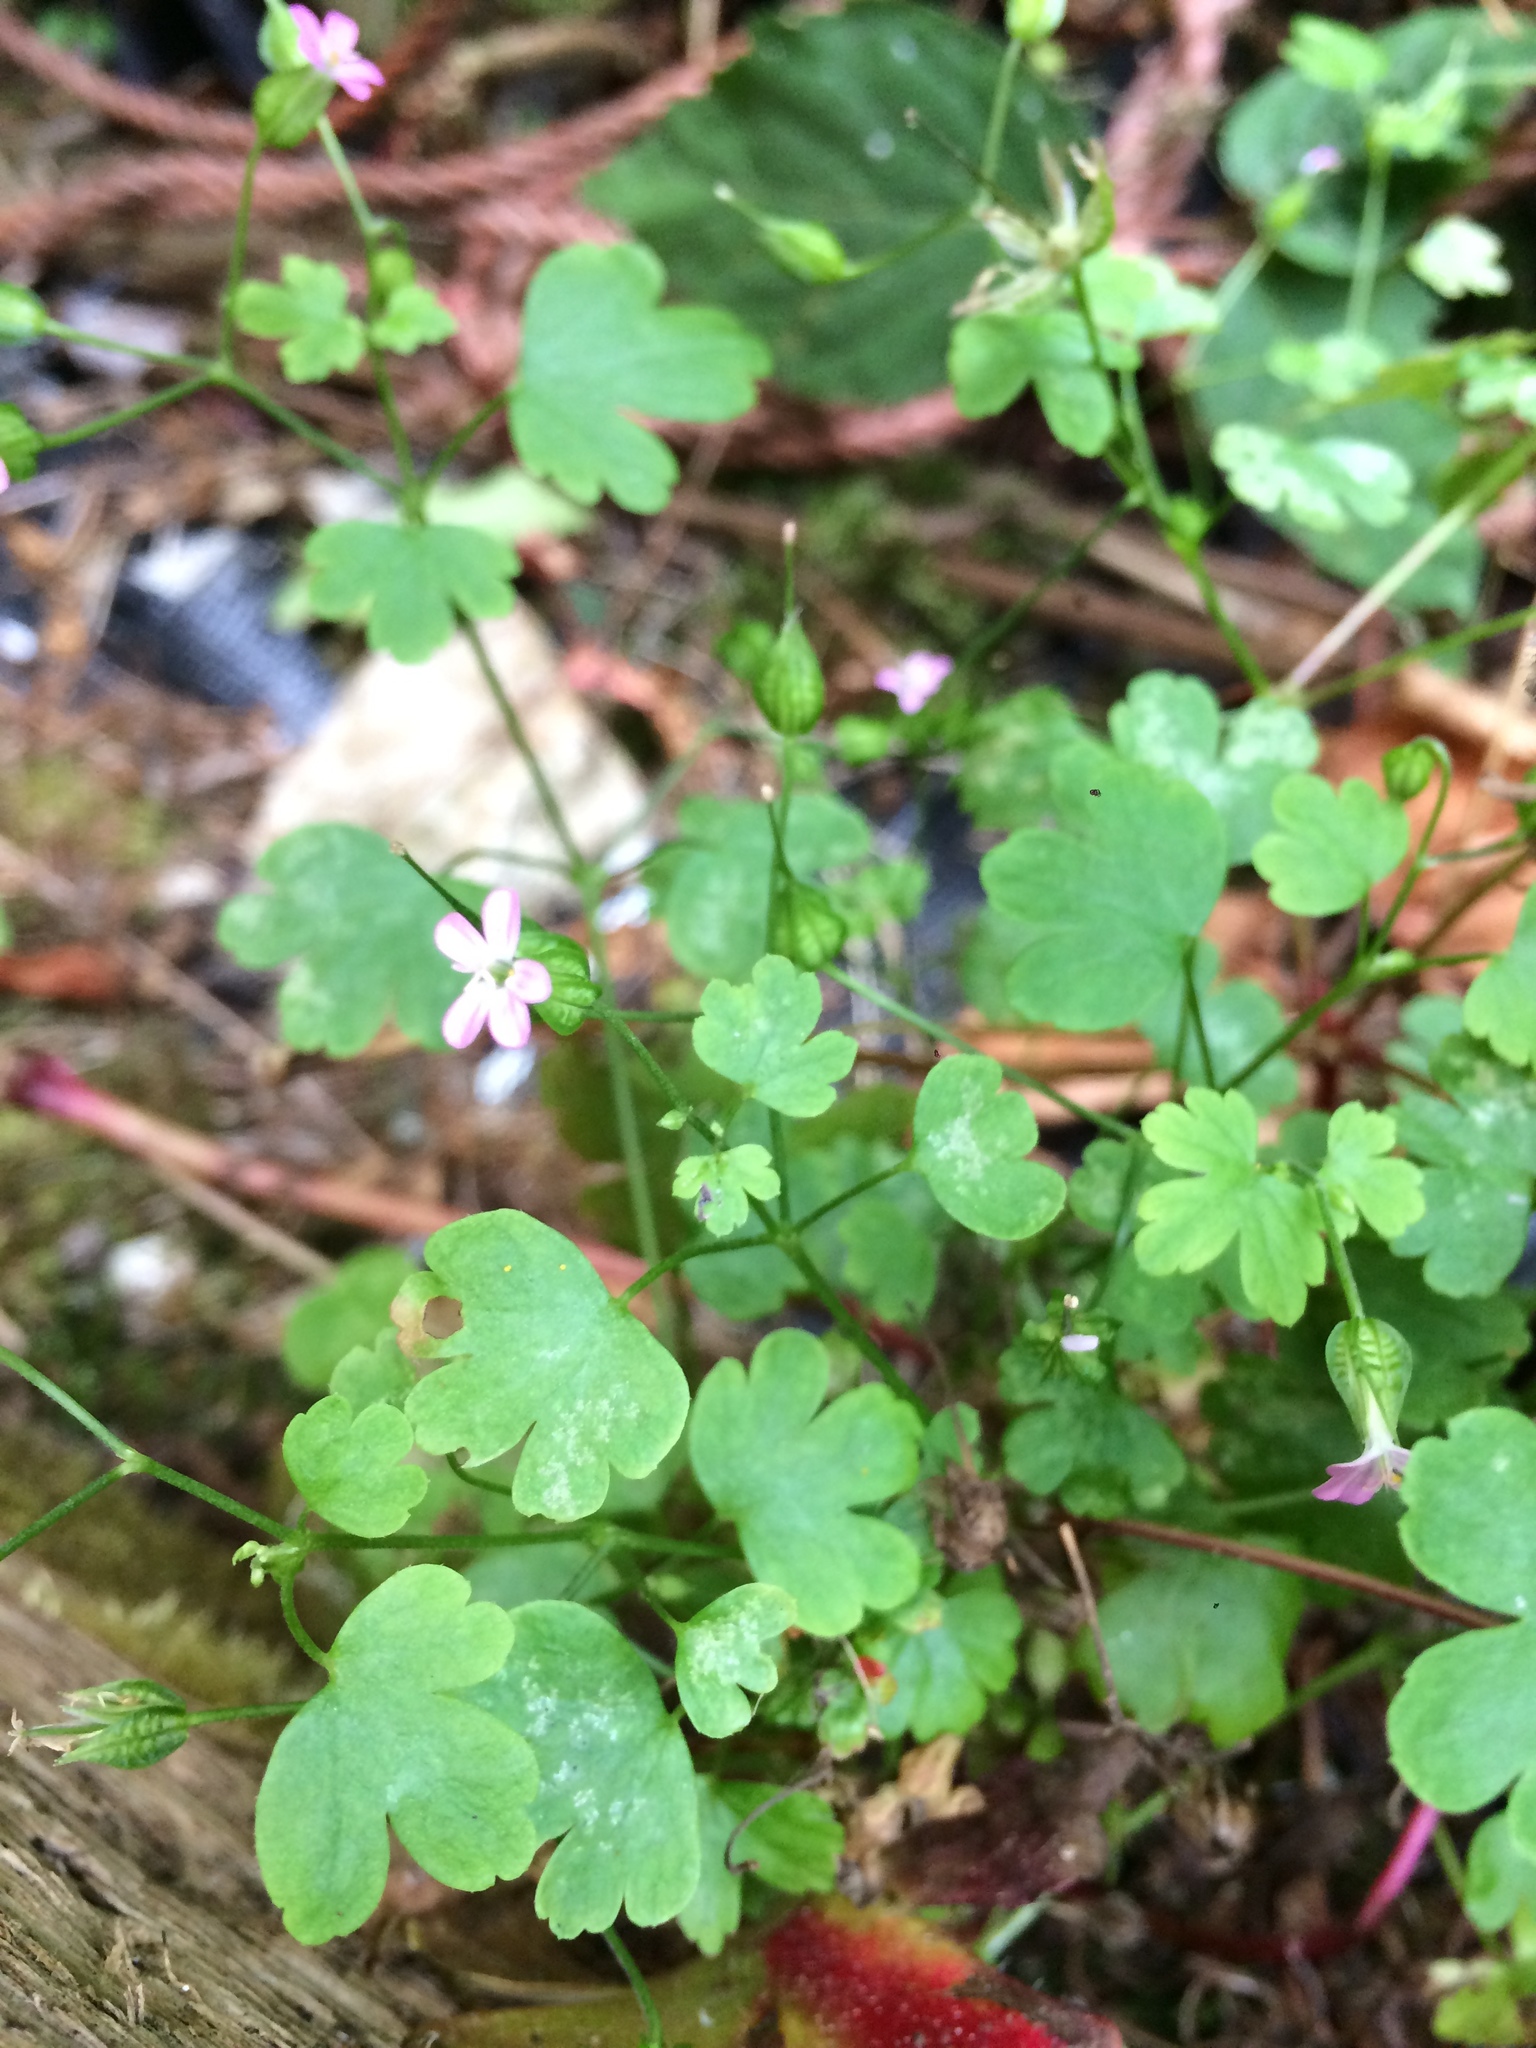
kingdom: Plantae
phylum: Tracheophyta
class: Magnoliopsida
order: Geraniales
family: Geraniaceae
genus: Geranium
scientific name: Geranium lucidum
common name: Shining crane's-bill
